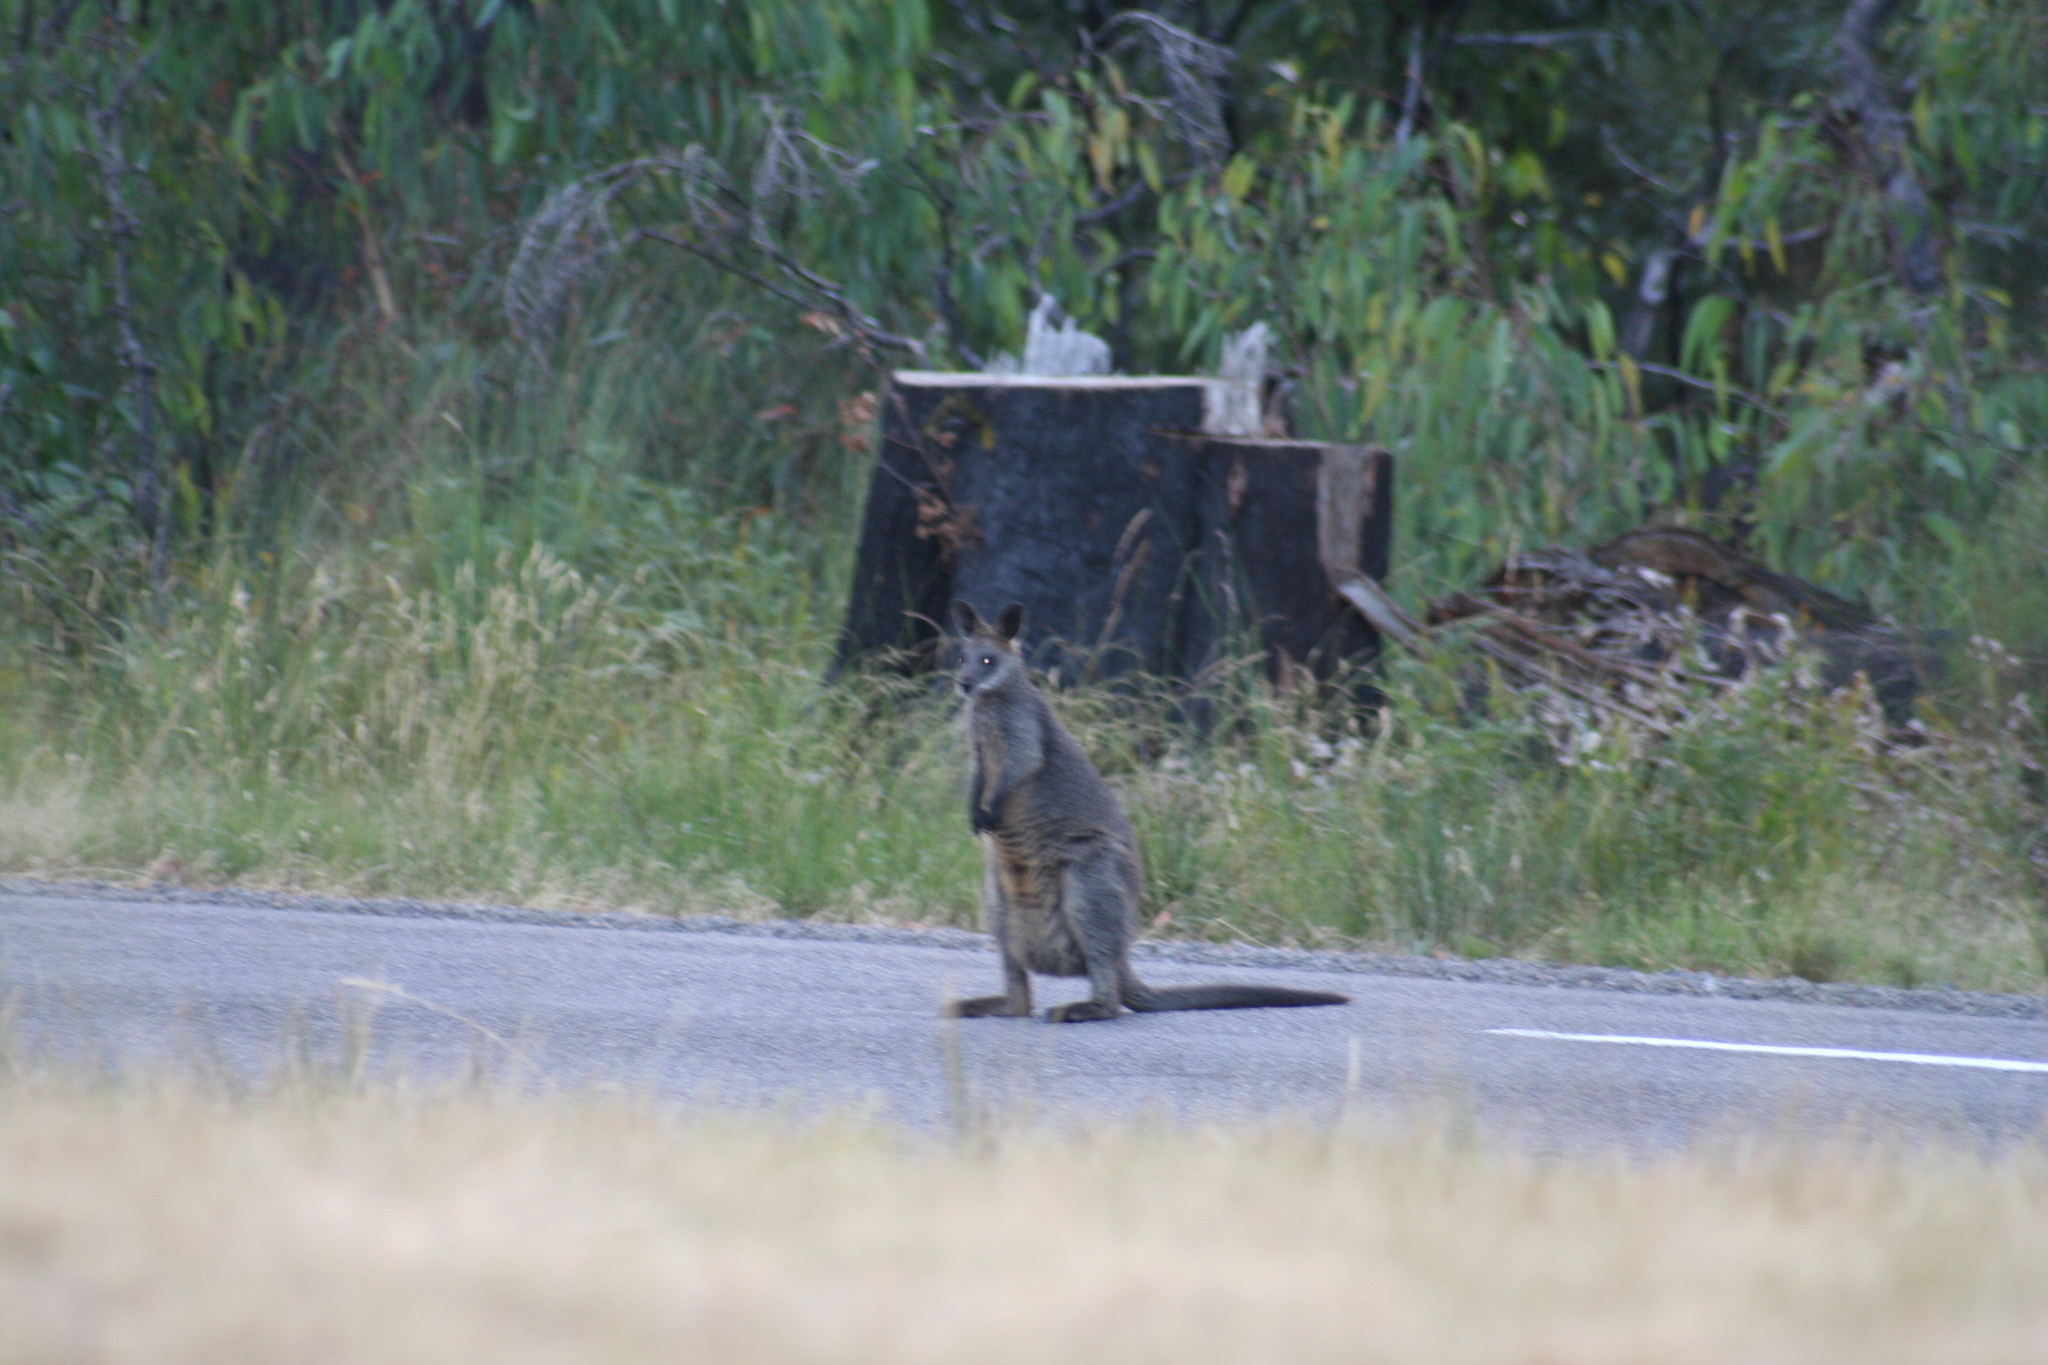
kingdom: Animalia
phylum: Chordata
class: Mammalia
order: Diprotodontia
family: Macropodidae
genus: Wallabia
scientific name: Wallabia bicolor
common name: Swamp wallaby
